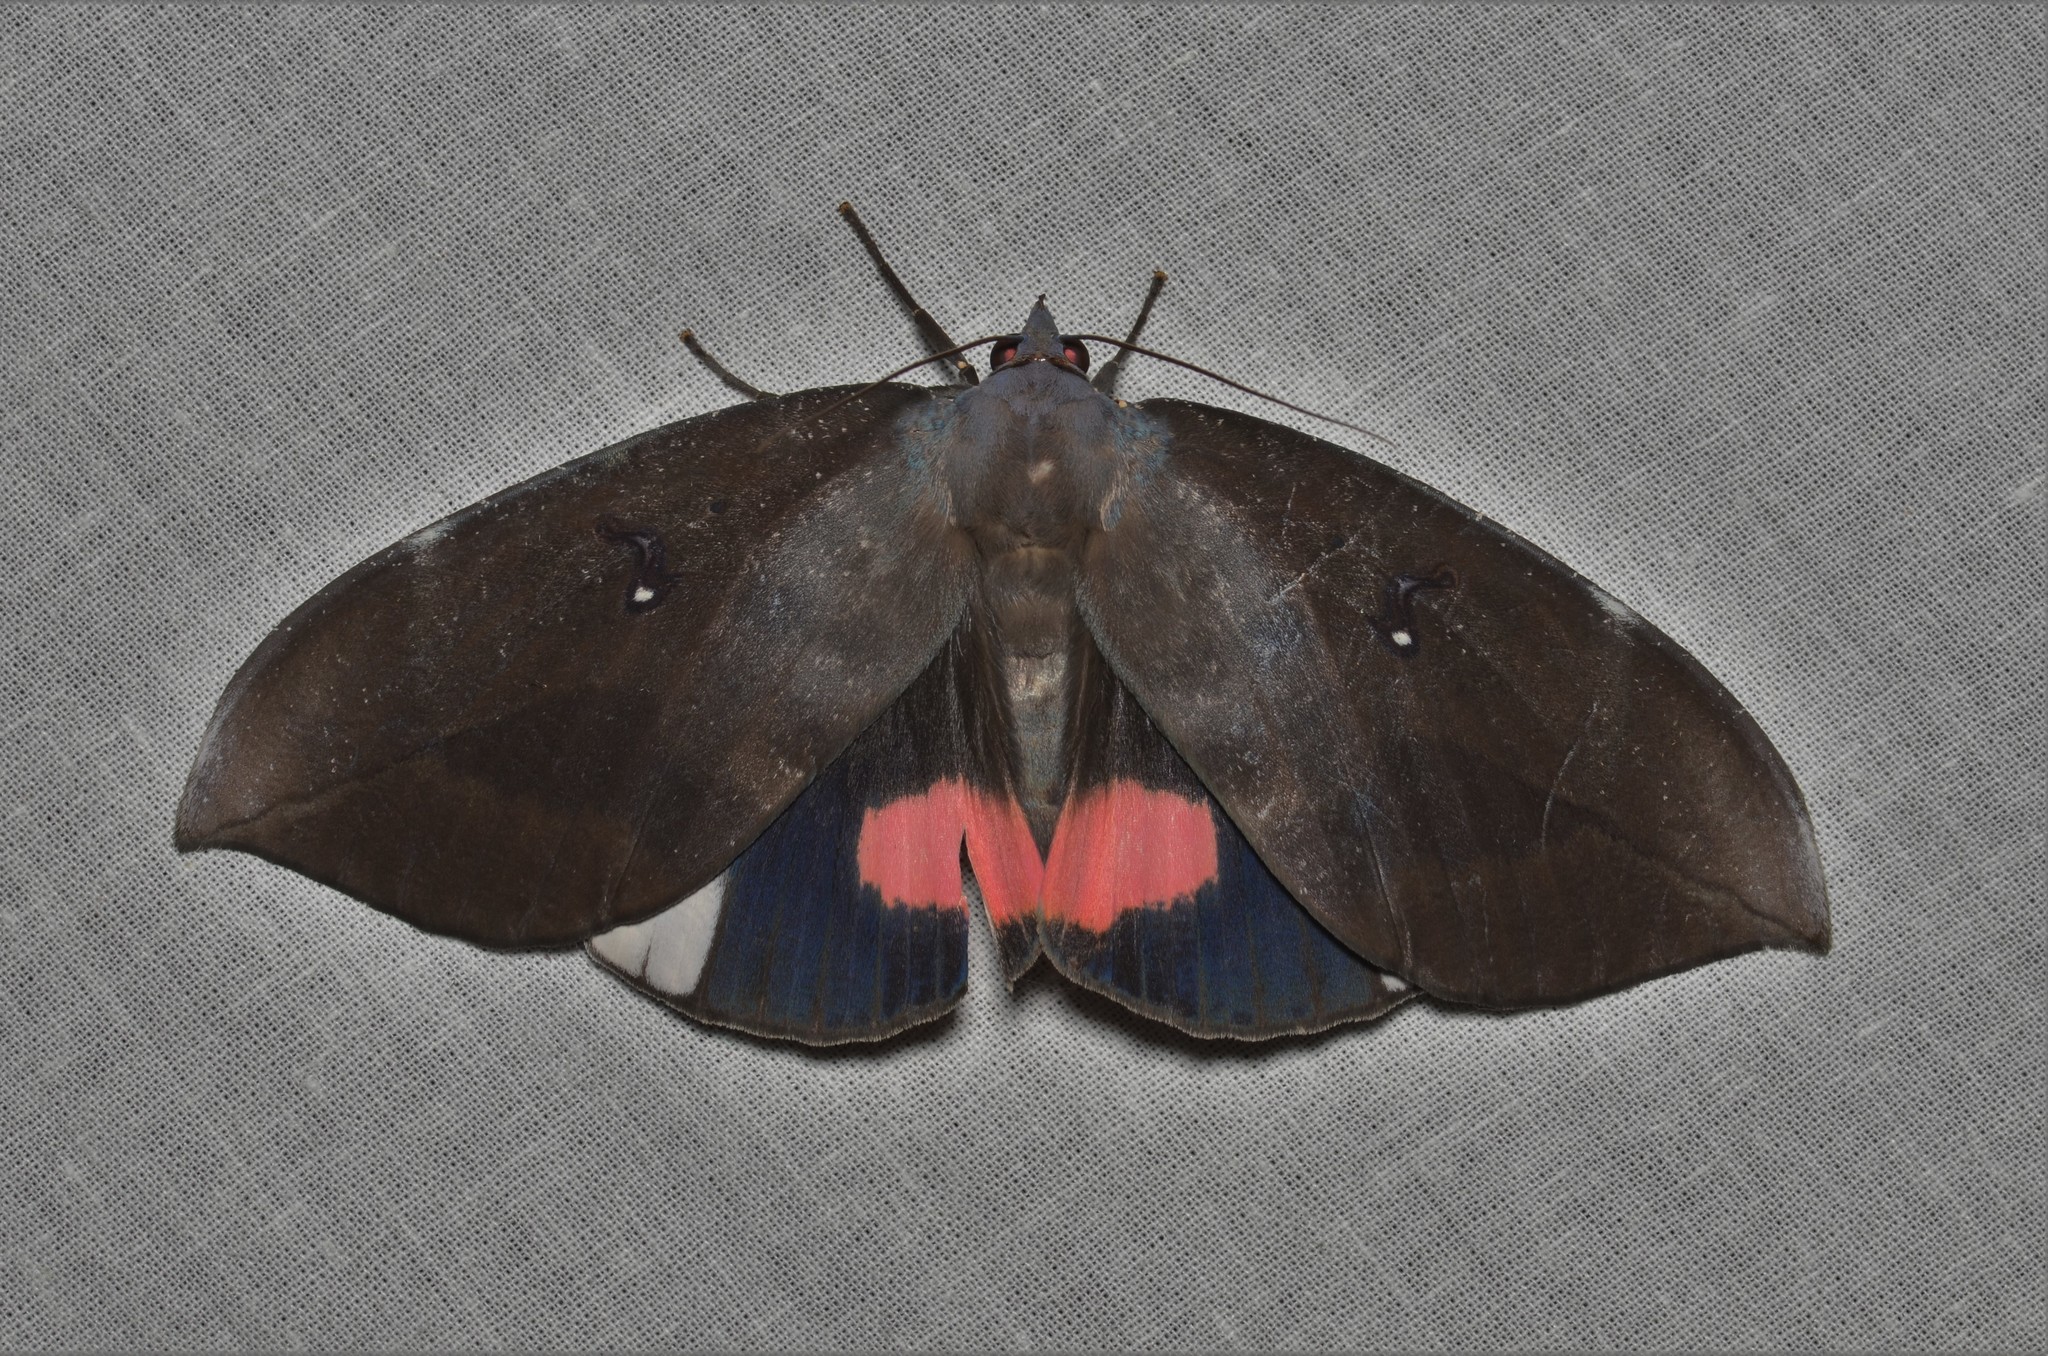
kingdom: Animalia
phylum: Arthropoda
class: Insecta
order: Lepidoptera
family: Erebidae
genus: Phyllodes
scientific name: Phyllodes conspicillator
